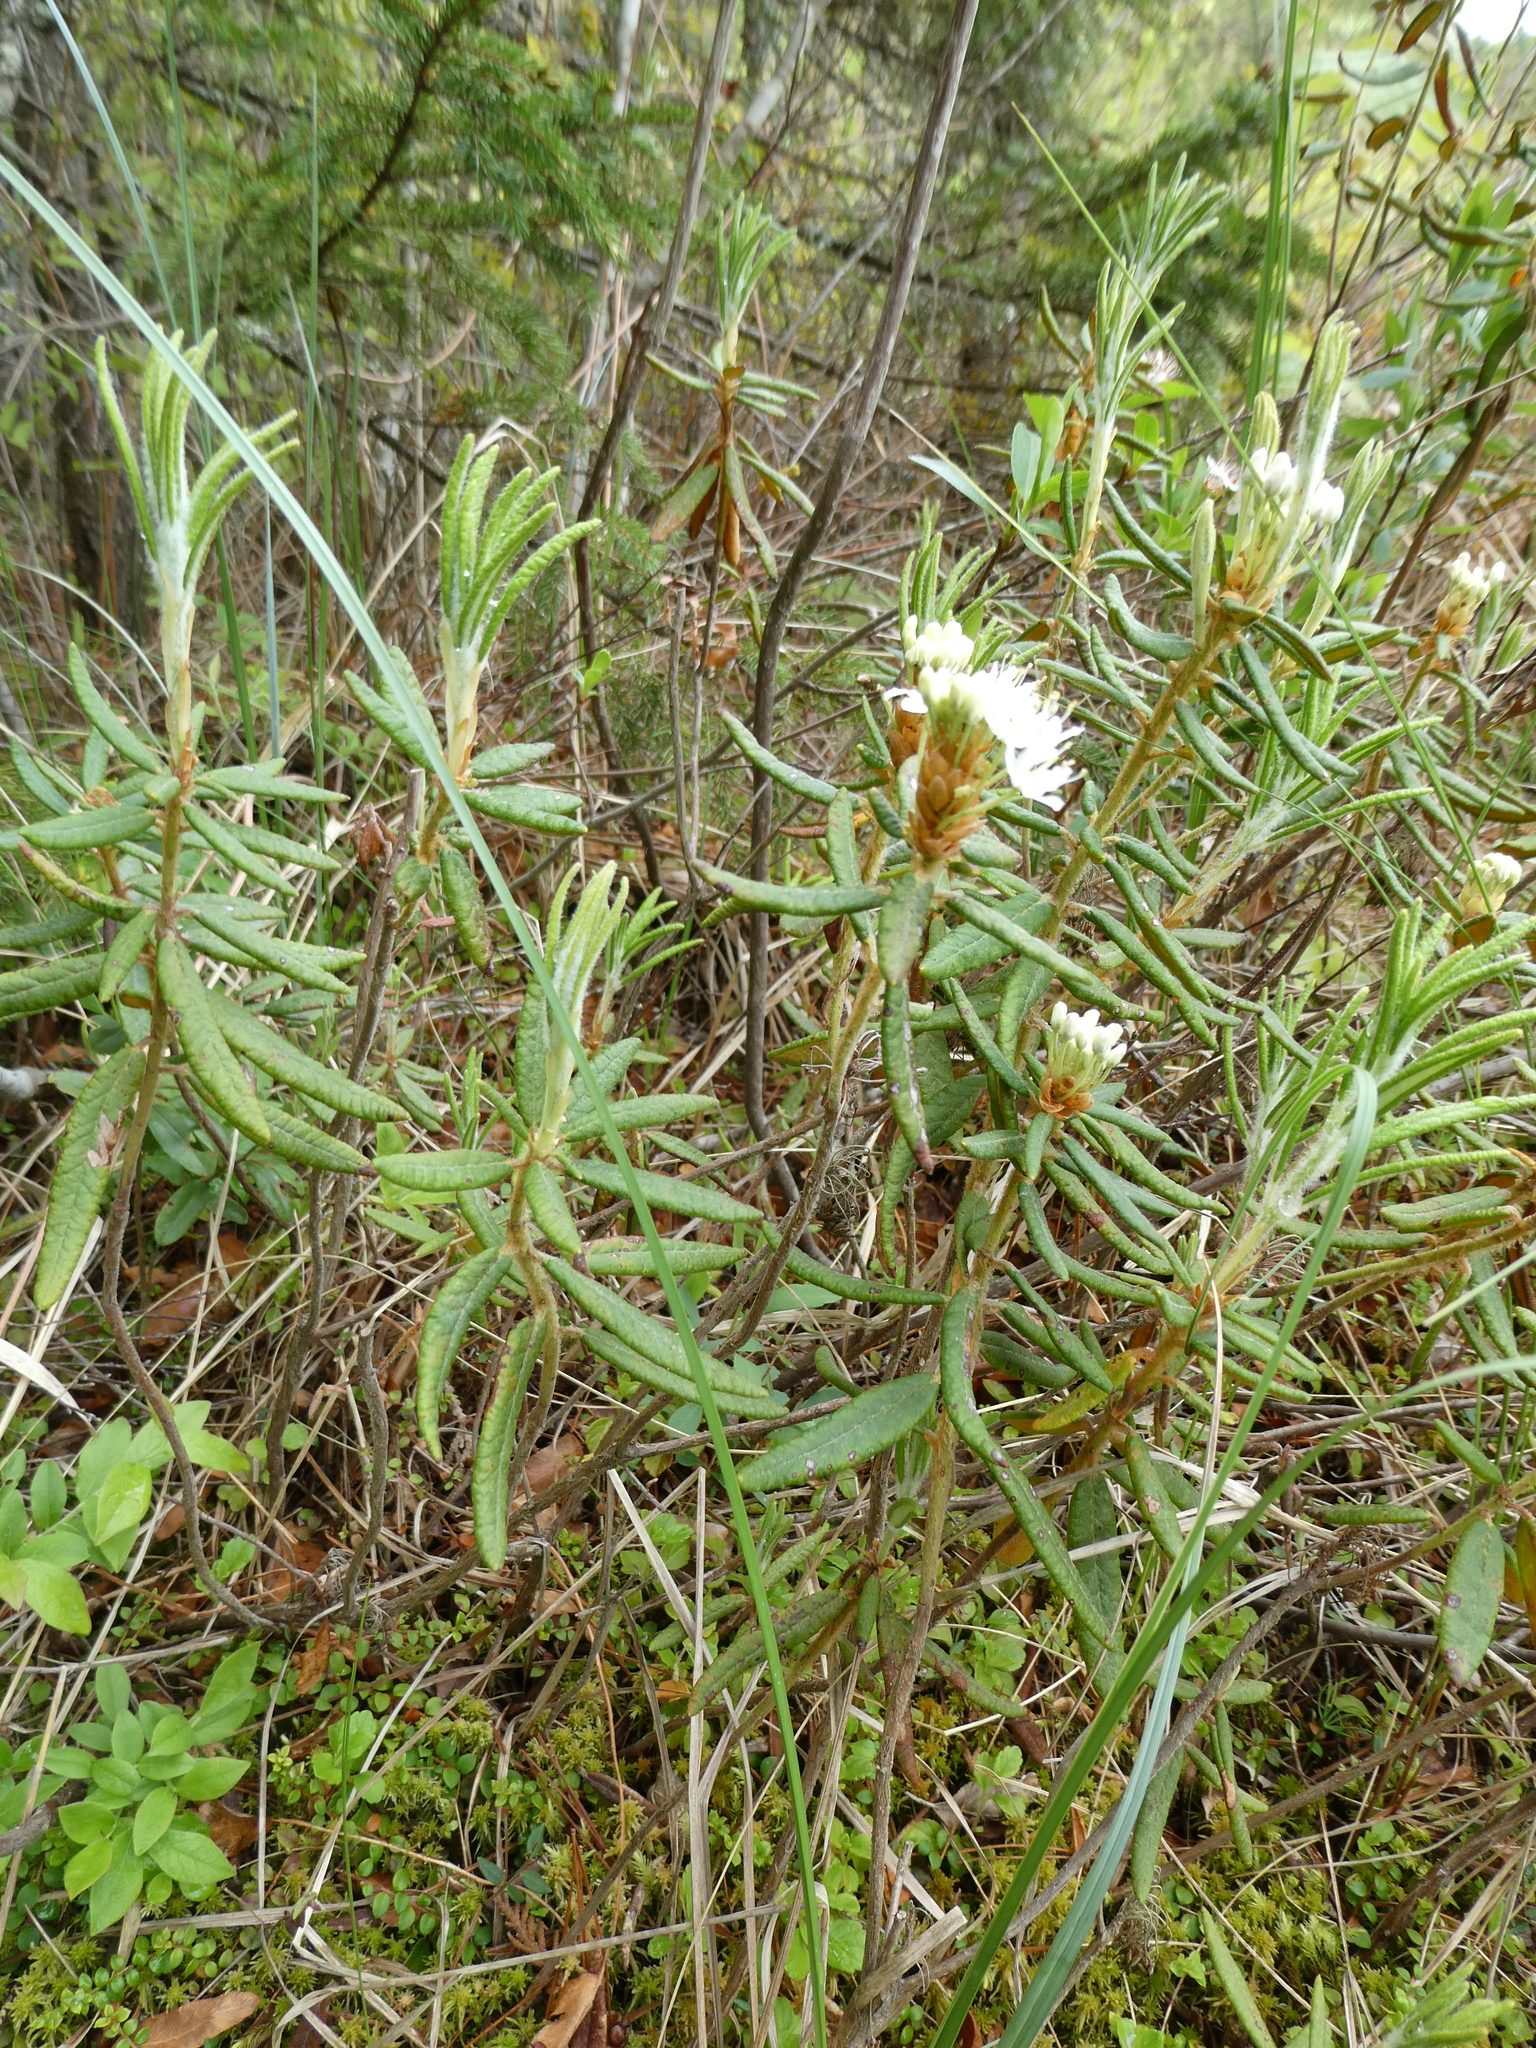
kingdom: Plantae
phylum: Tracheophyta
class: Magnoliopsida
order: Ericales
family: Ericaceae
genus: Rhododendron
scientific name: Rhododendron groenlandicum
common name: Bog labrador tea
